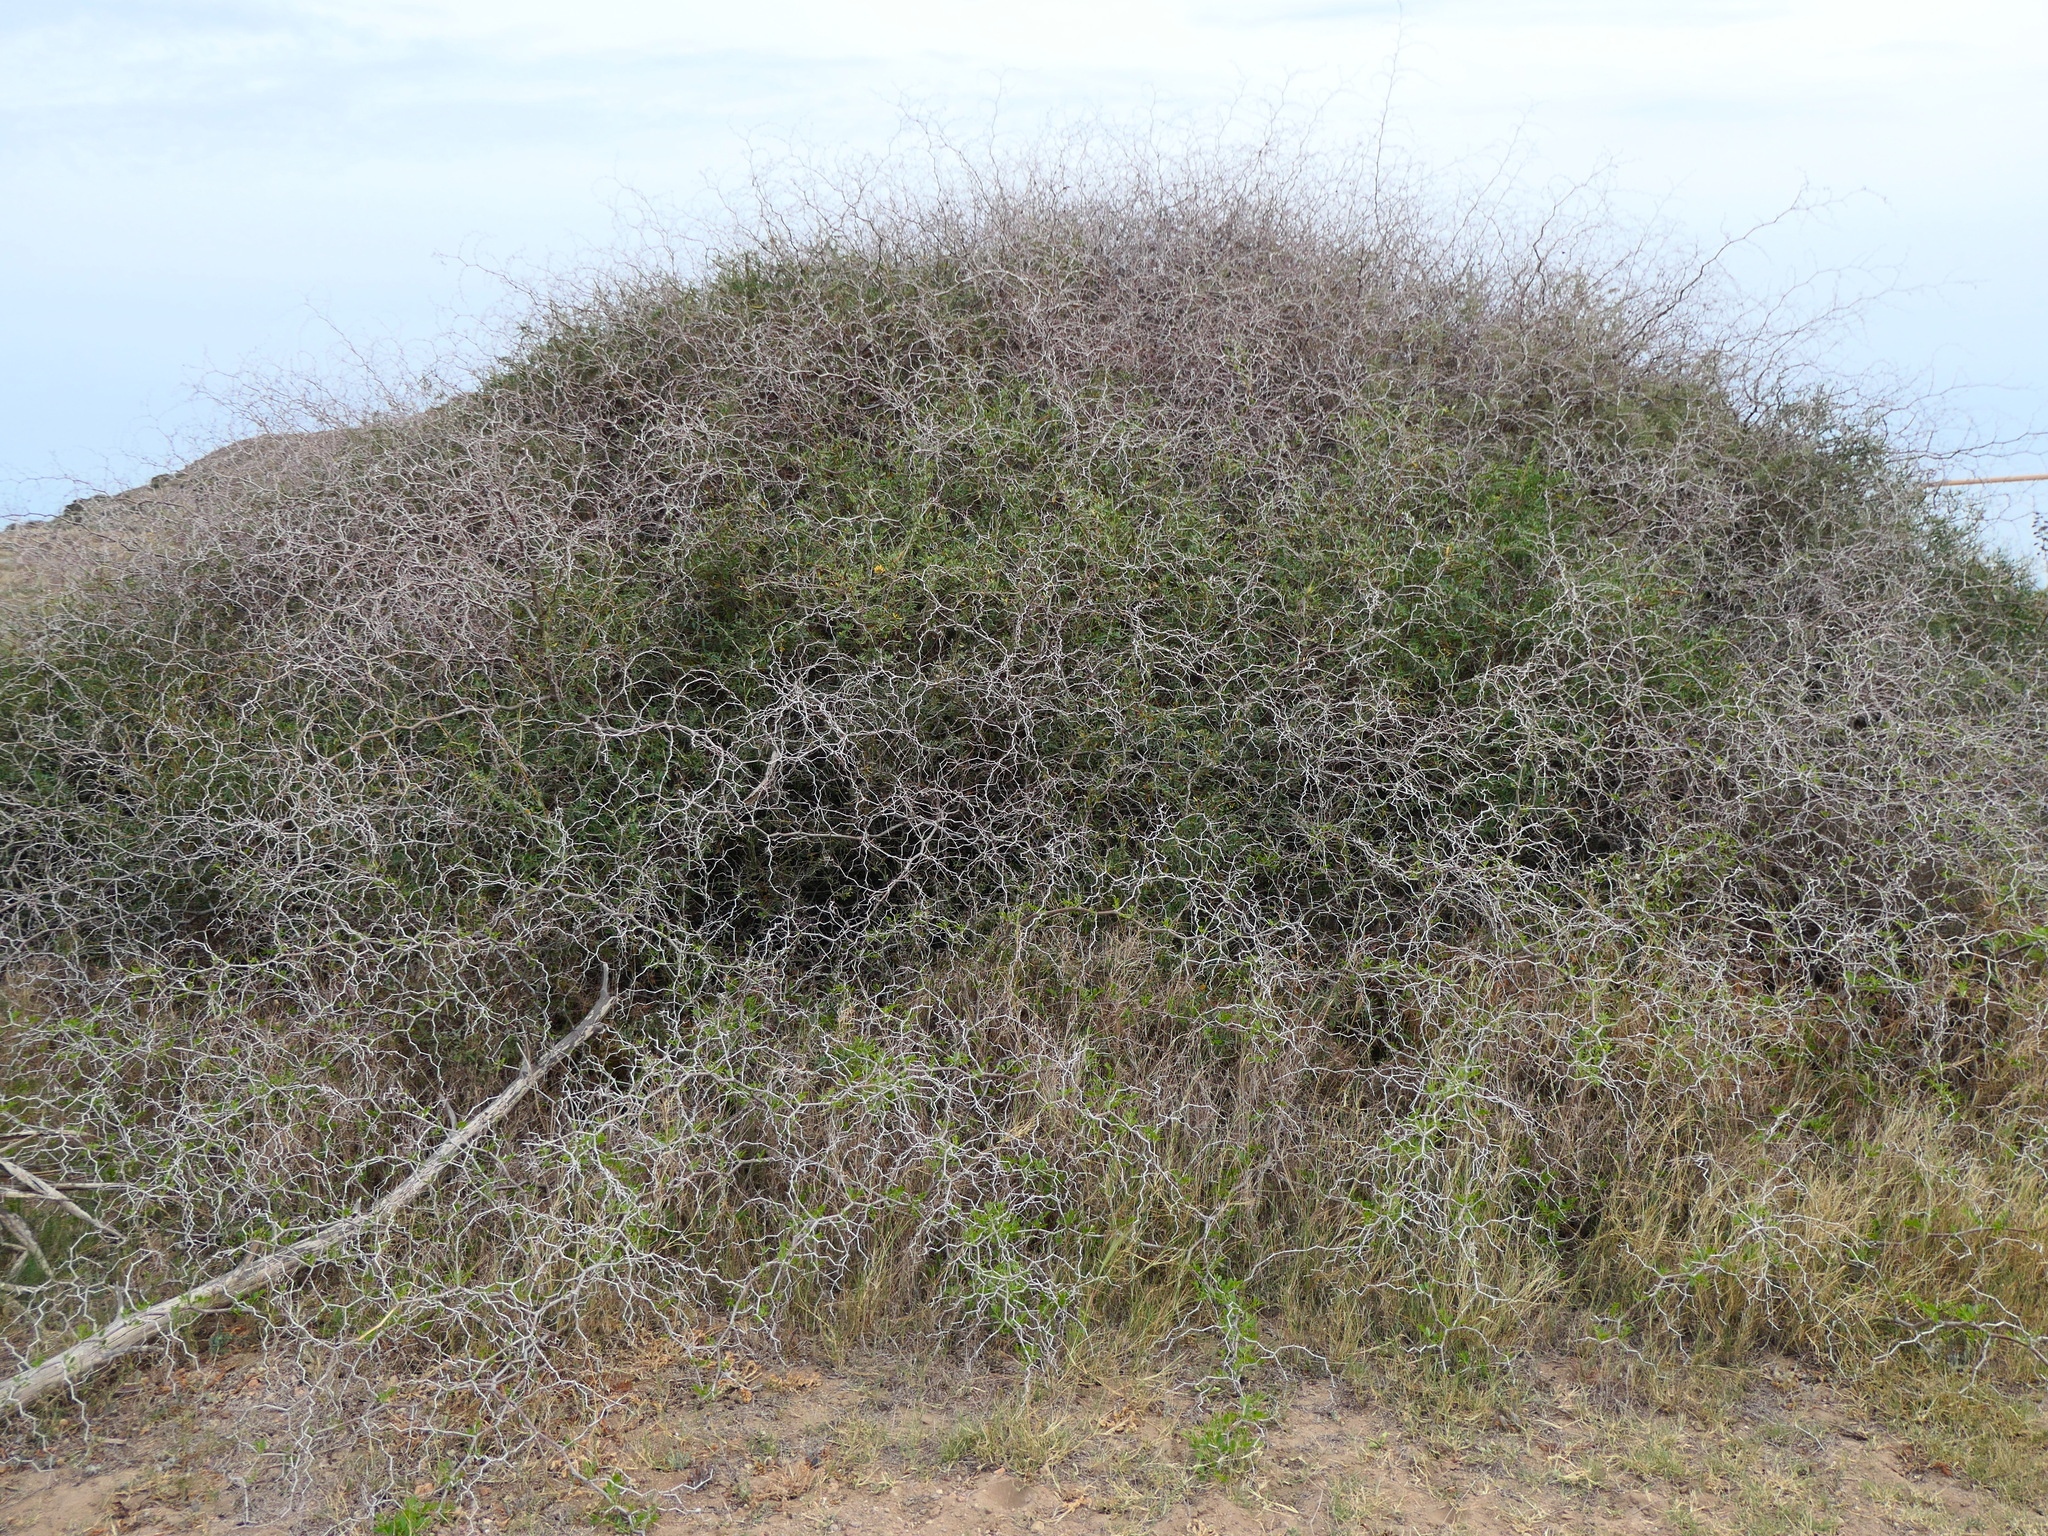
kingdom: Plantae
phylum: Tracheophyta
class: Magnoliopsida
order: Rosales
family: Rhamnaceae
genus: Ziziphus
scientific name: Ziziphus lotus
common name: Lotus
